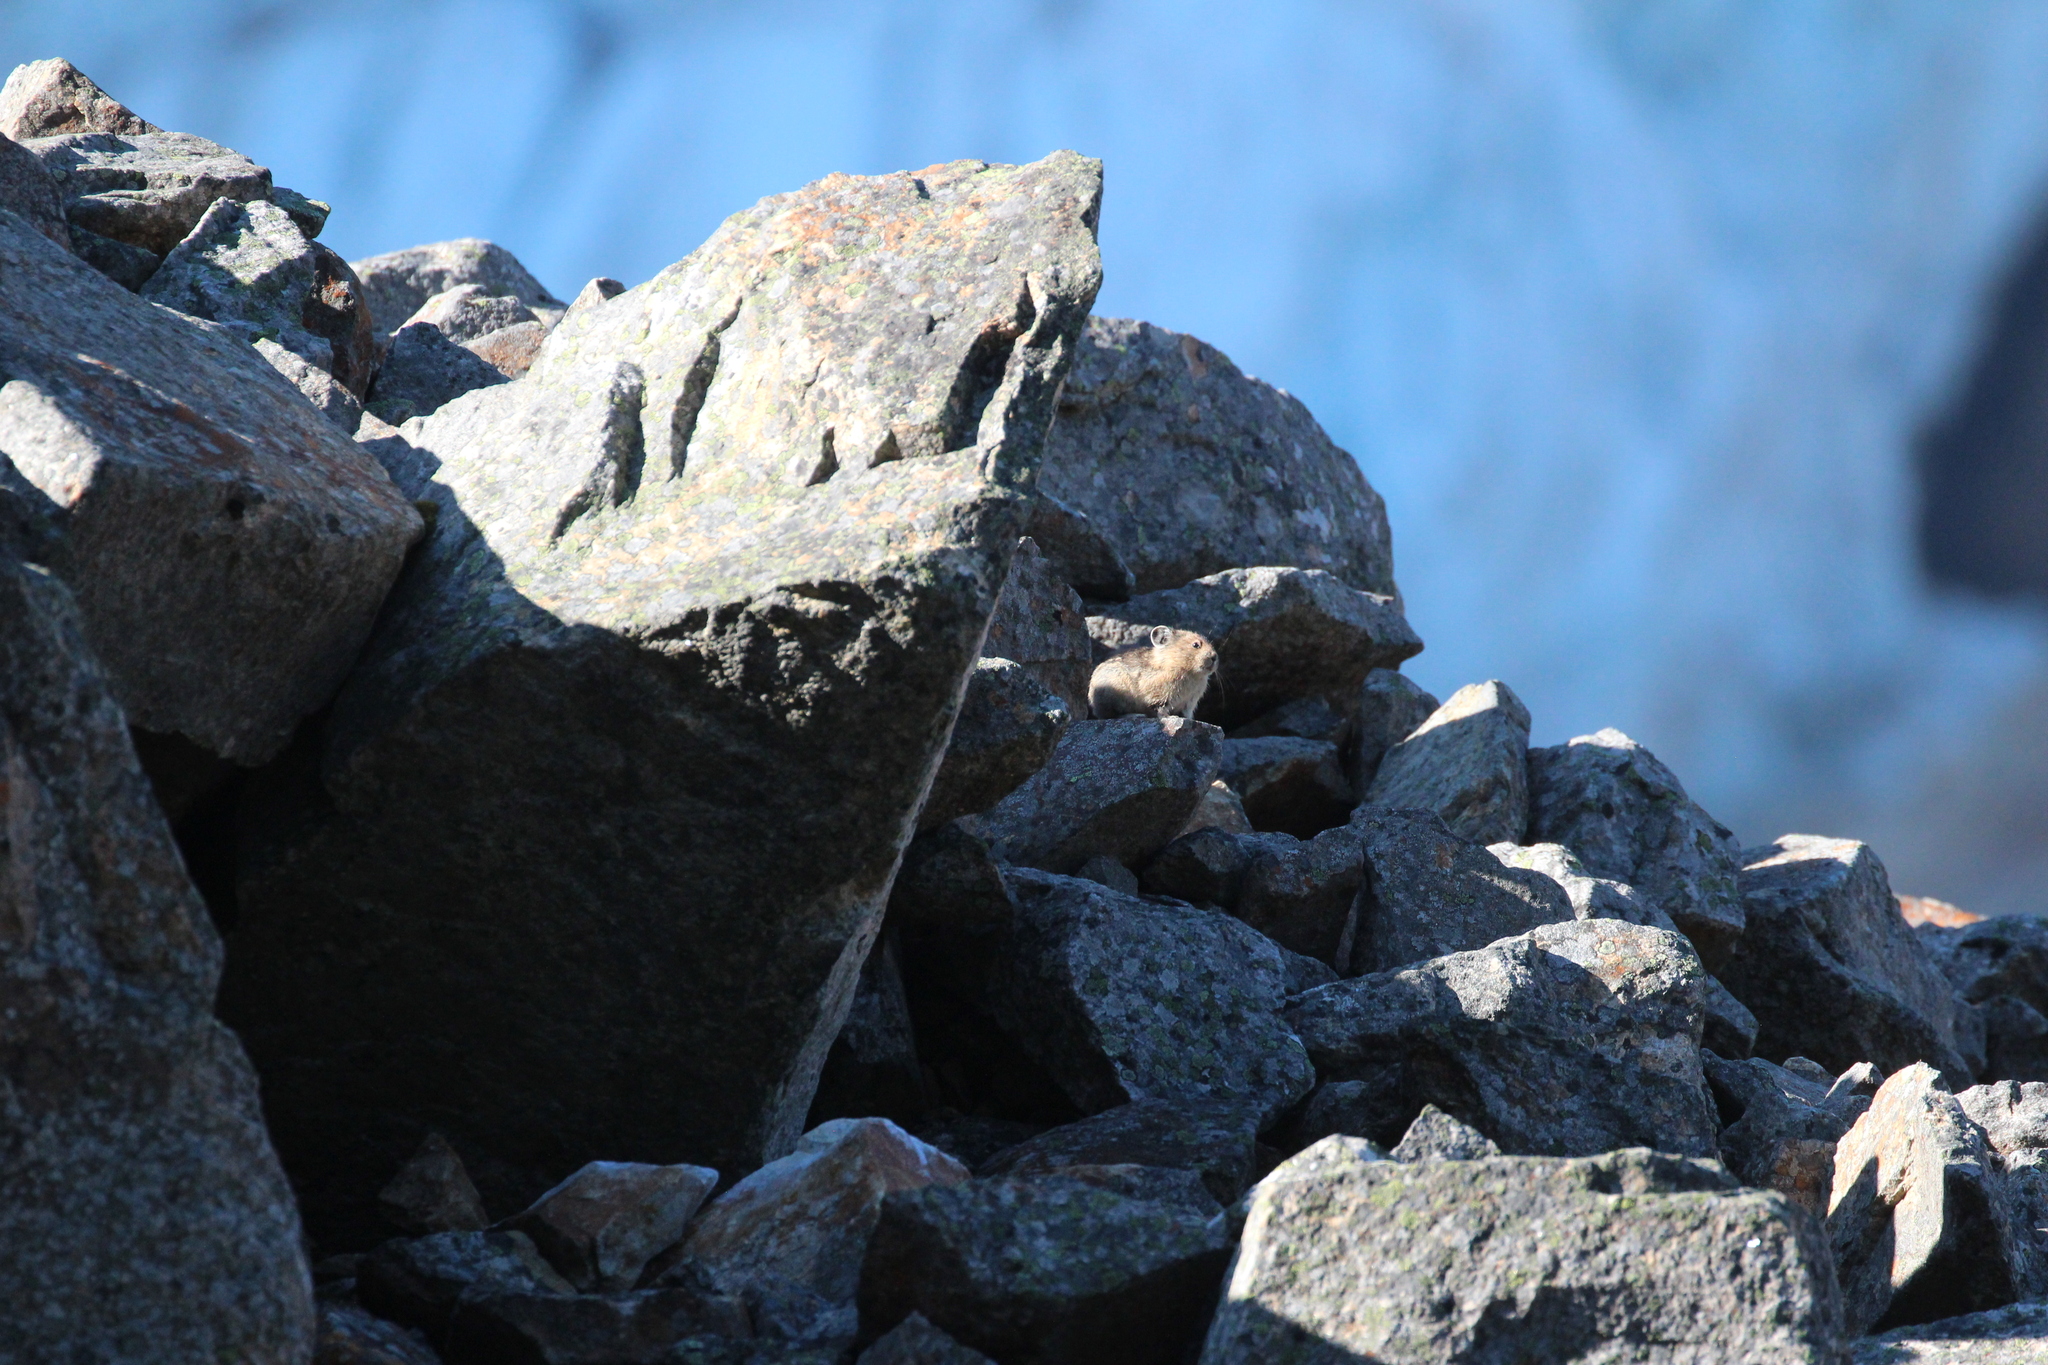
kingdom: Animalia
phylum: Chordata
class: Mammalia
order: Lagomorpha
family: Ochotonidae
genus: Ochotona
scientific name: Ochotona princeps
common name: American pika
